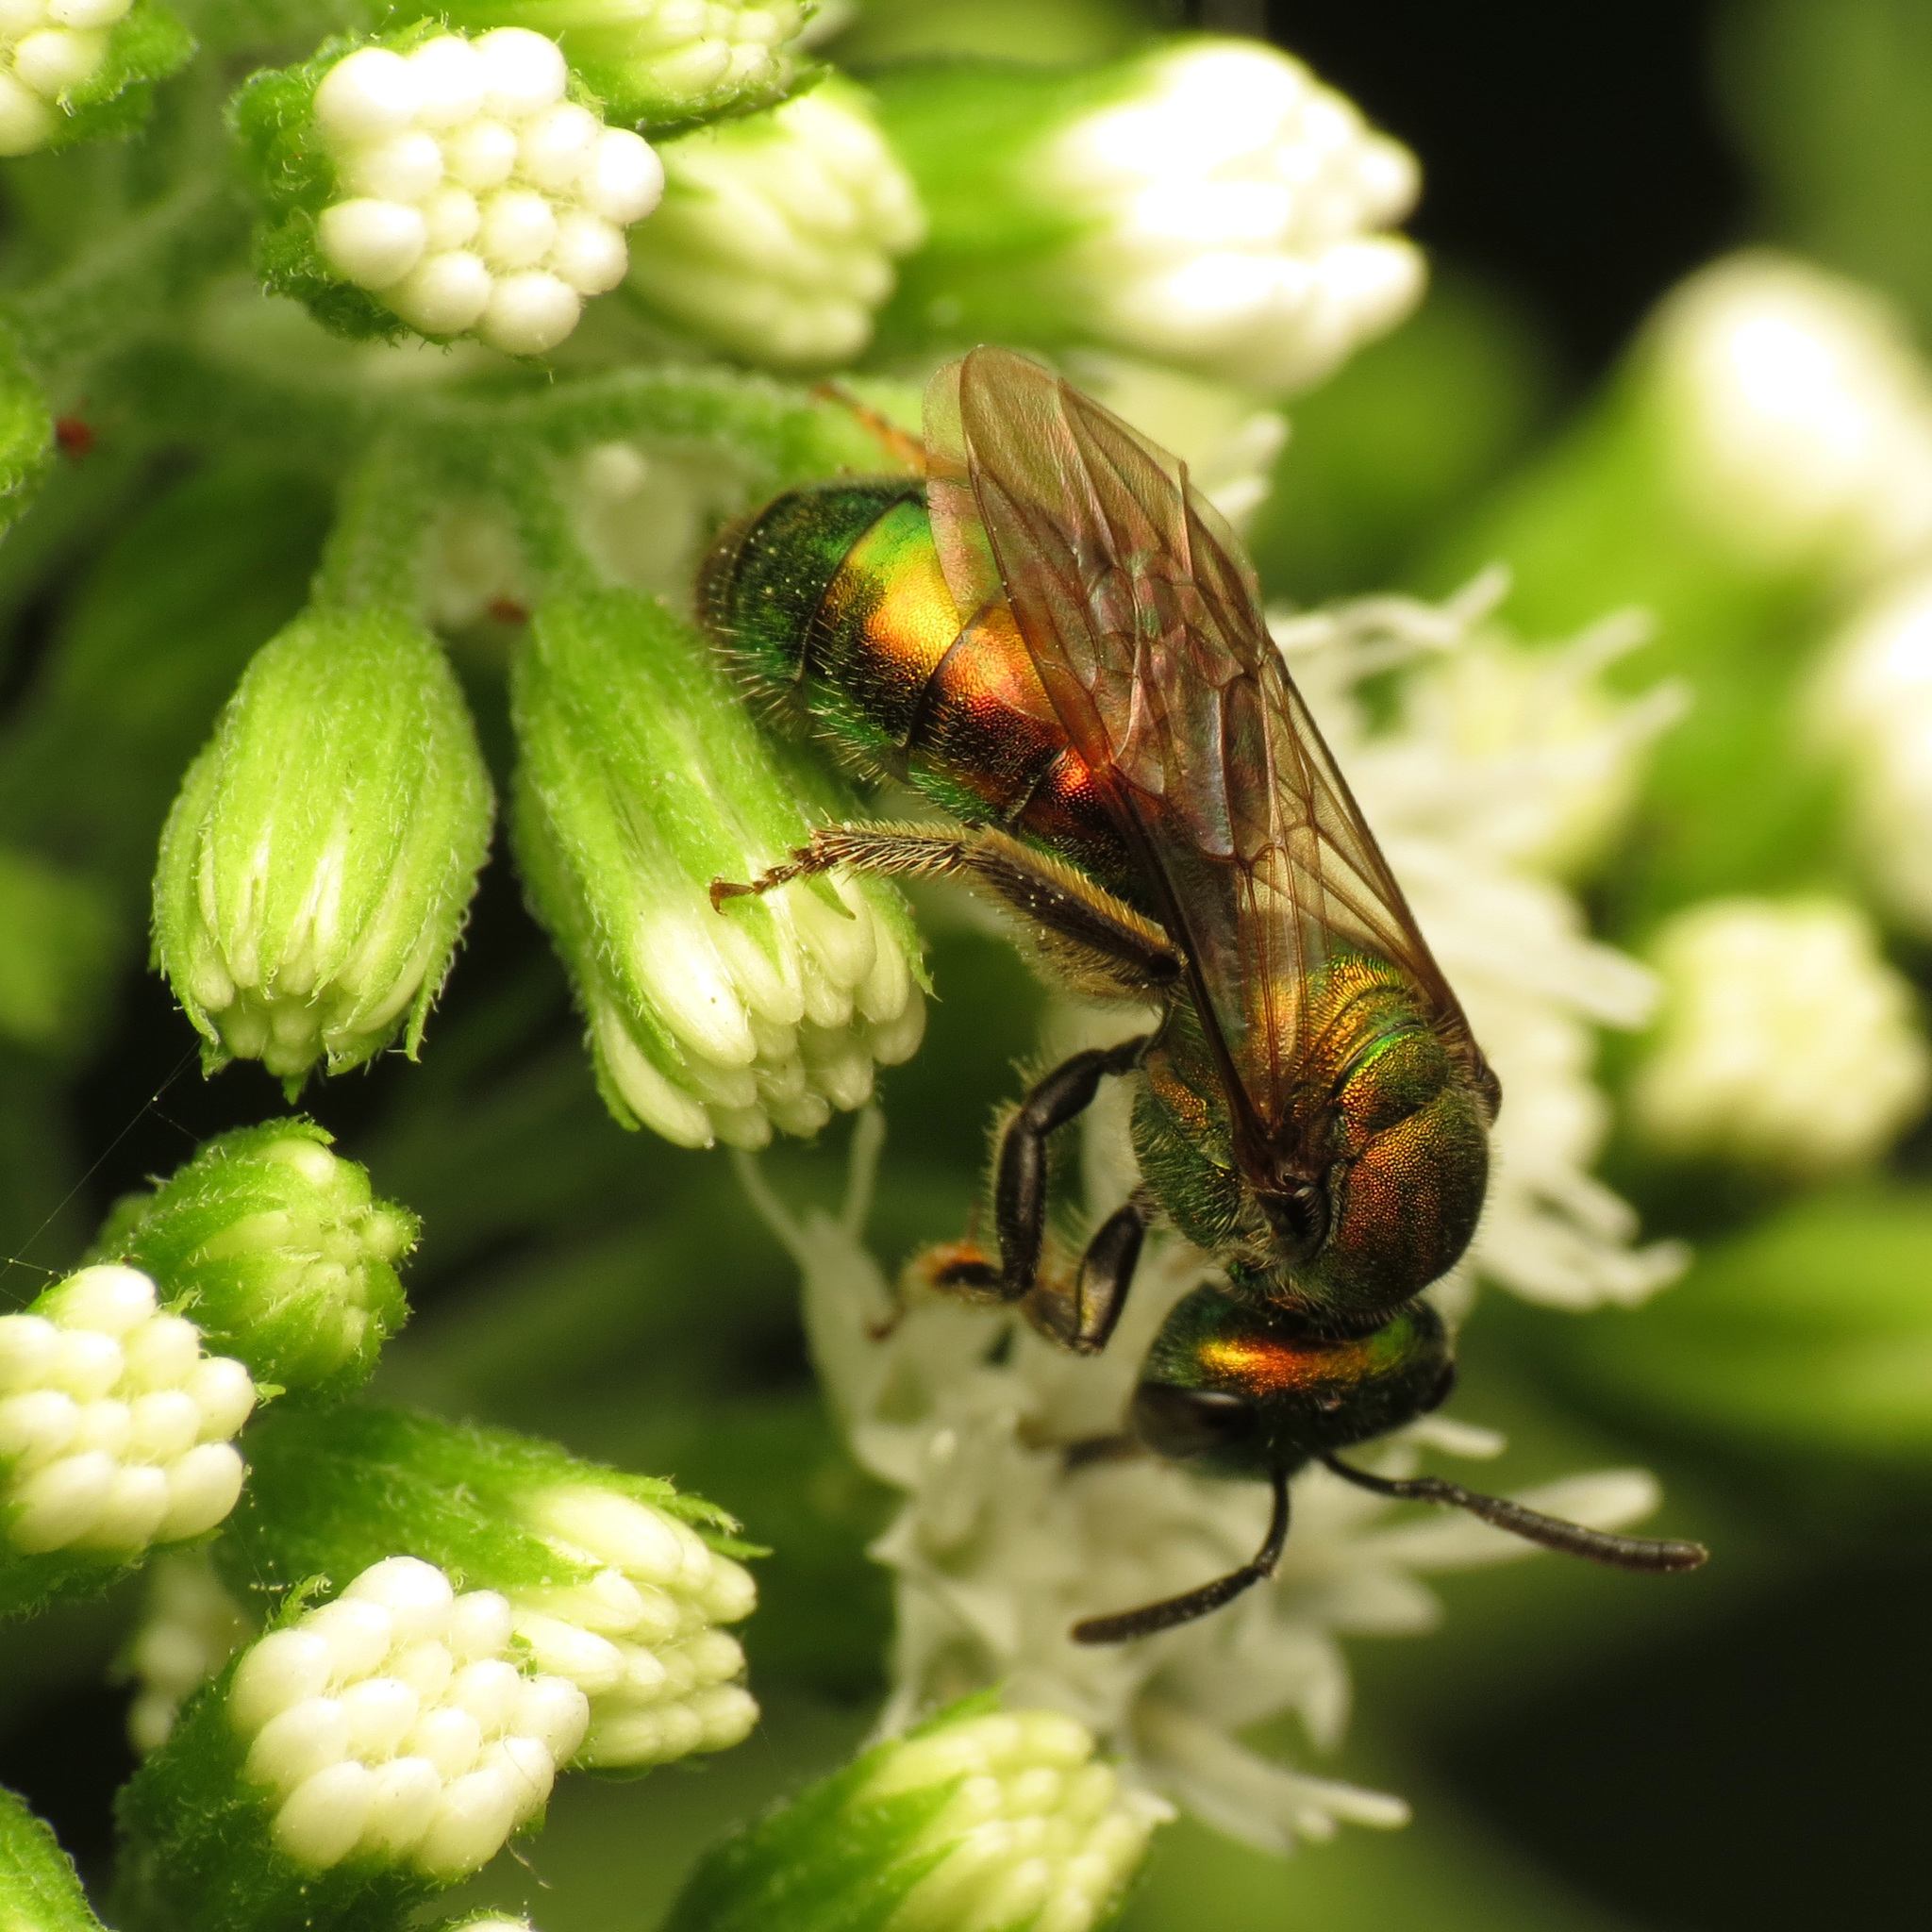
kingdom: Animalia
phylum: Arthropoda
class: Insecta
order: Hymenoptera
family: Halictidae
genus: Augochlora
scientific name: Augochlora pura
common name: Pure green sweat bee
